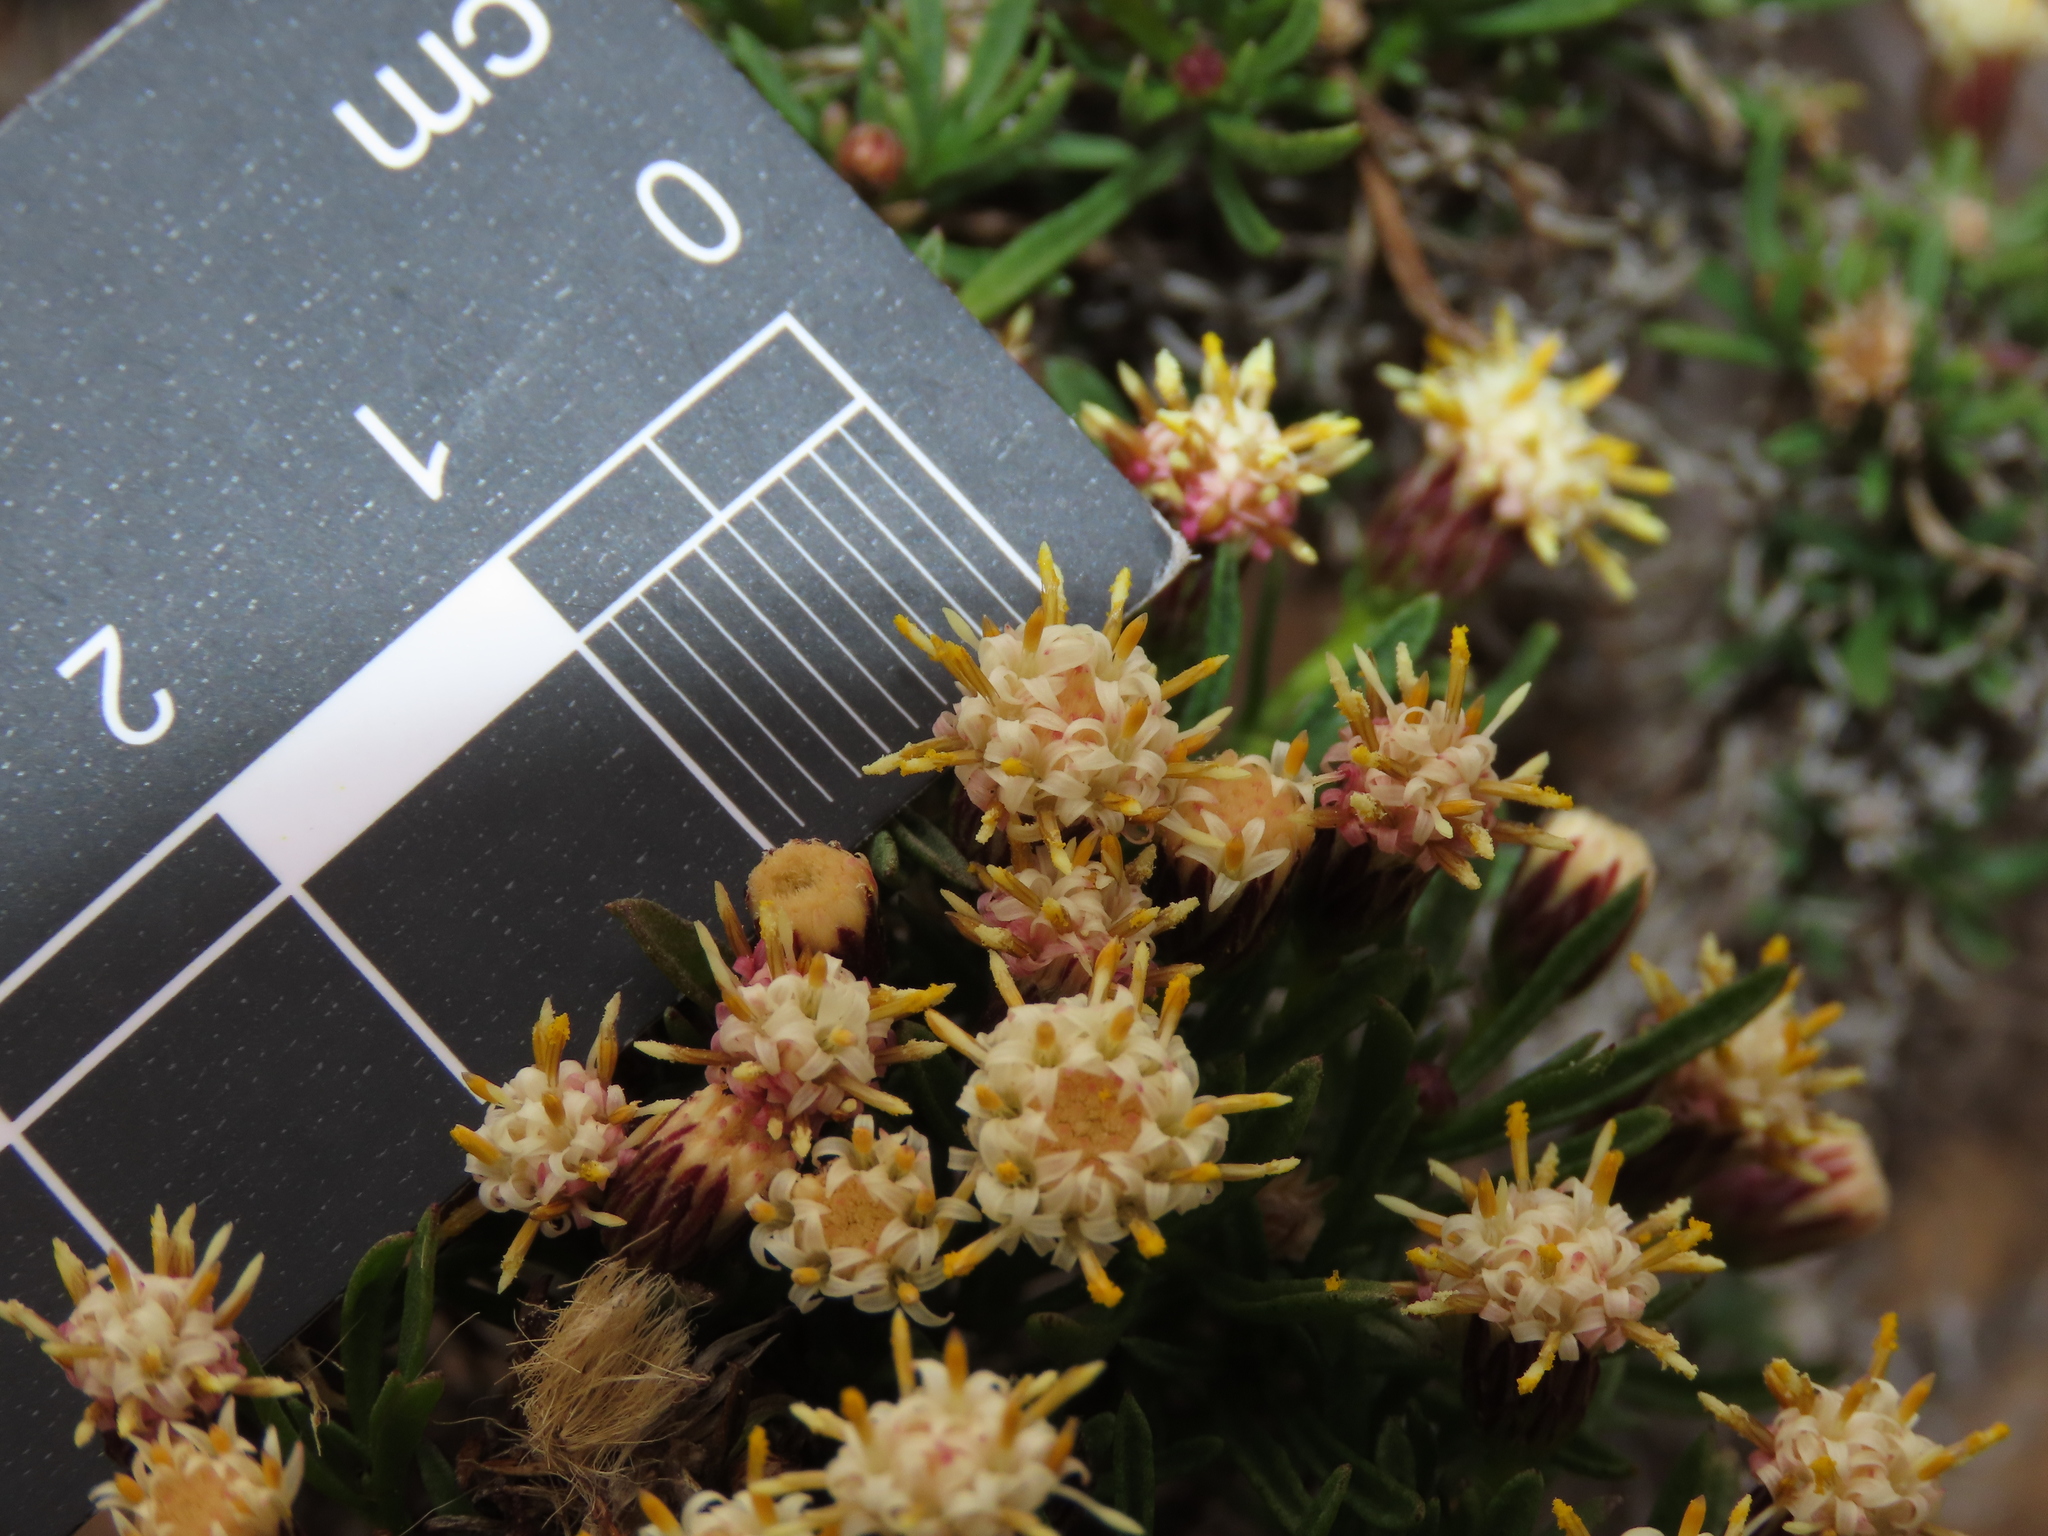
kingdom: Plantae
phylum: Tracheophyta
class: Magnoliopsida
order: Asterales
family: Asteraceae
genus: Baccharis
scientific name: Baccharis taltalensis
